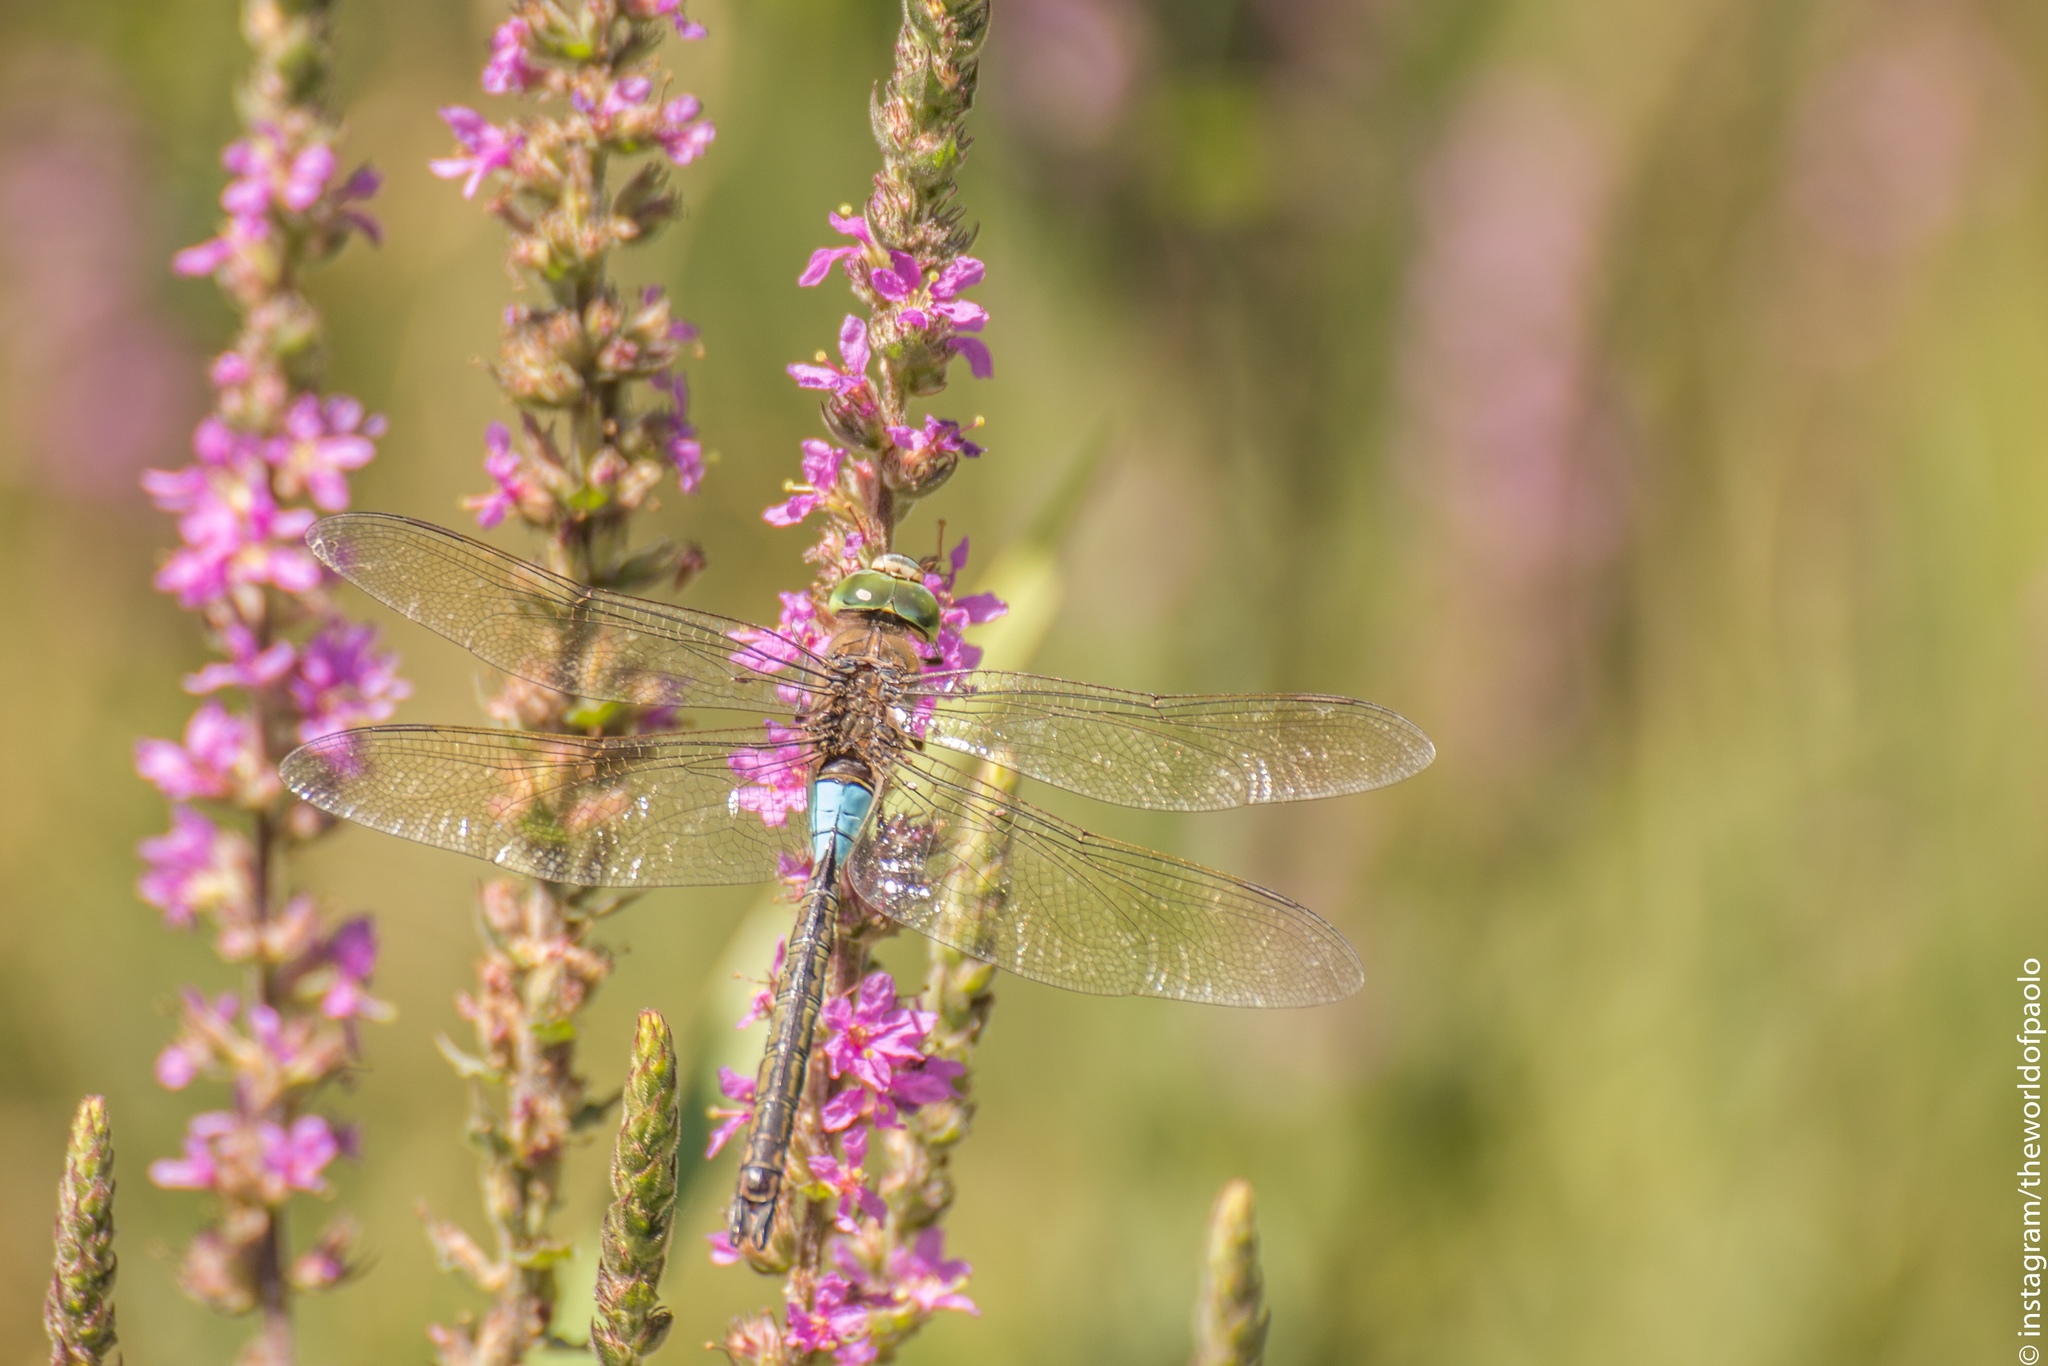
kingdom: Animalia
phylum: Arthropoda
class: Insecta
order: Odonata
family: Aeshnidae
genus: Anax
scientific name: Anax parthenope
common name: Lesser emperor
